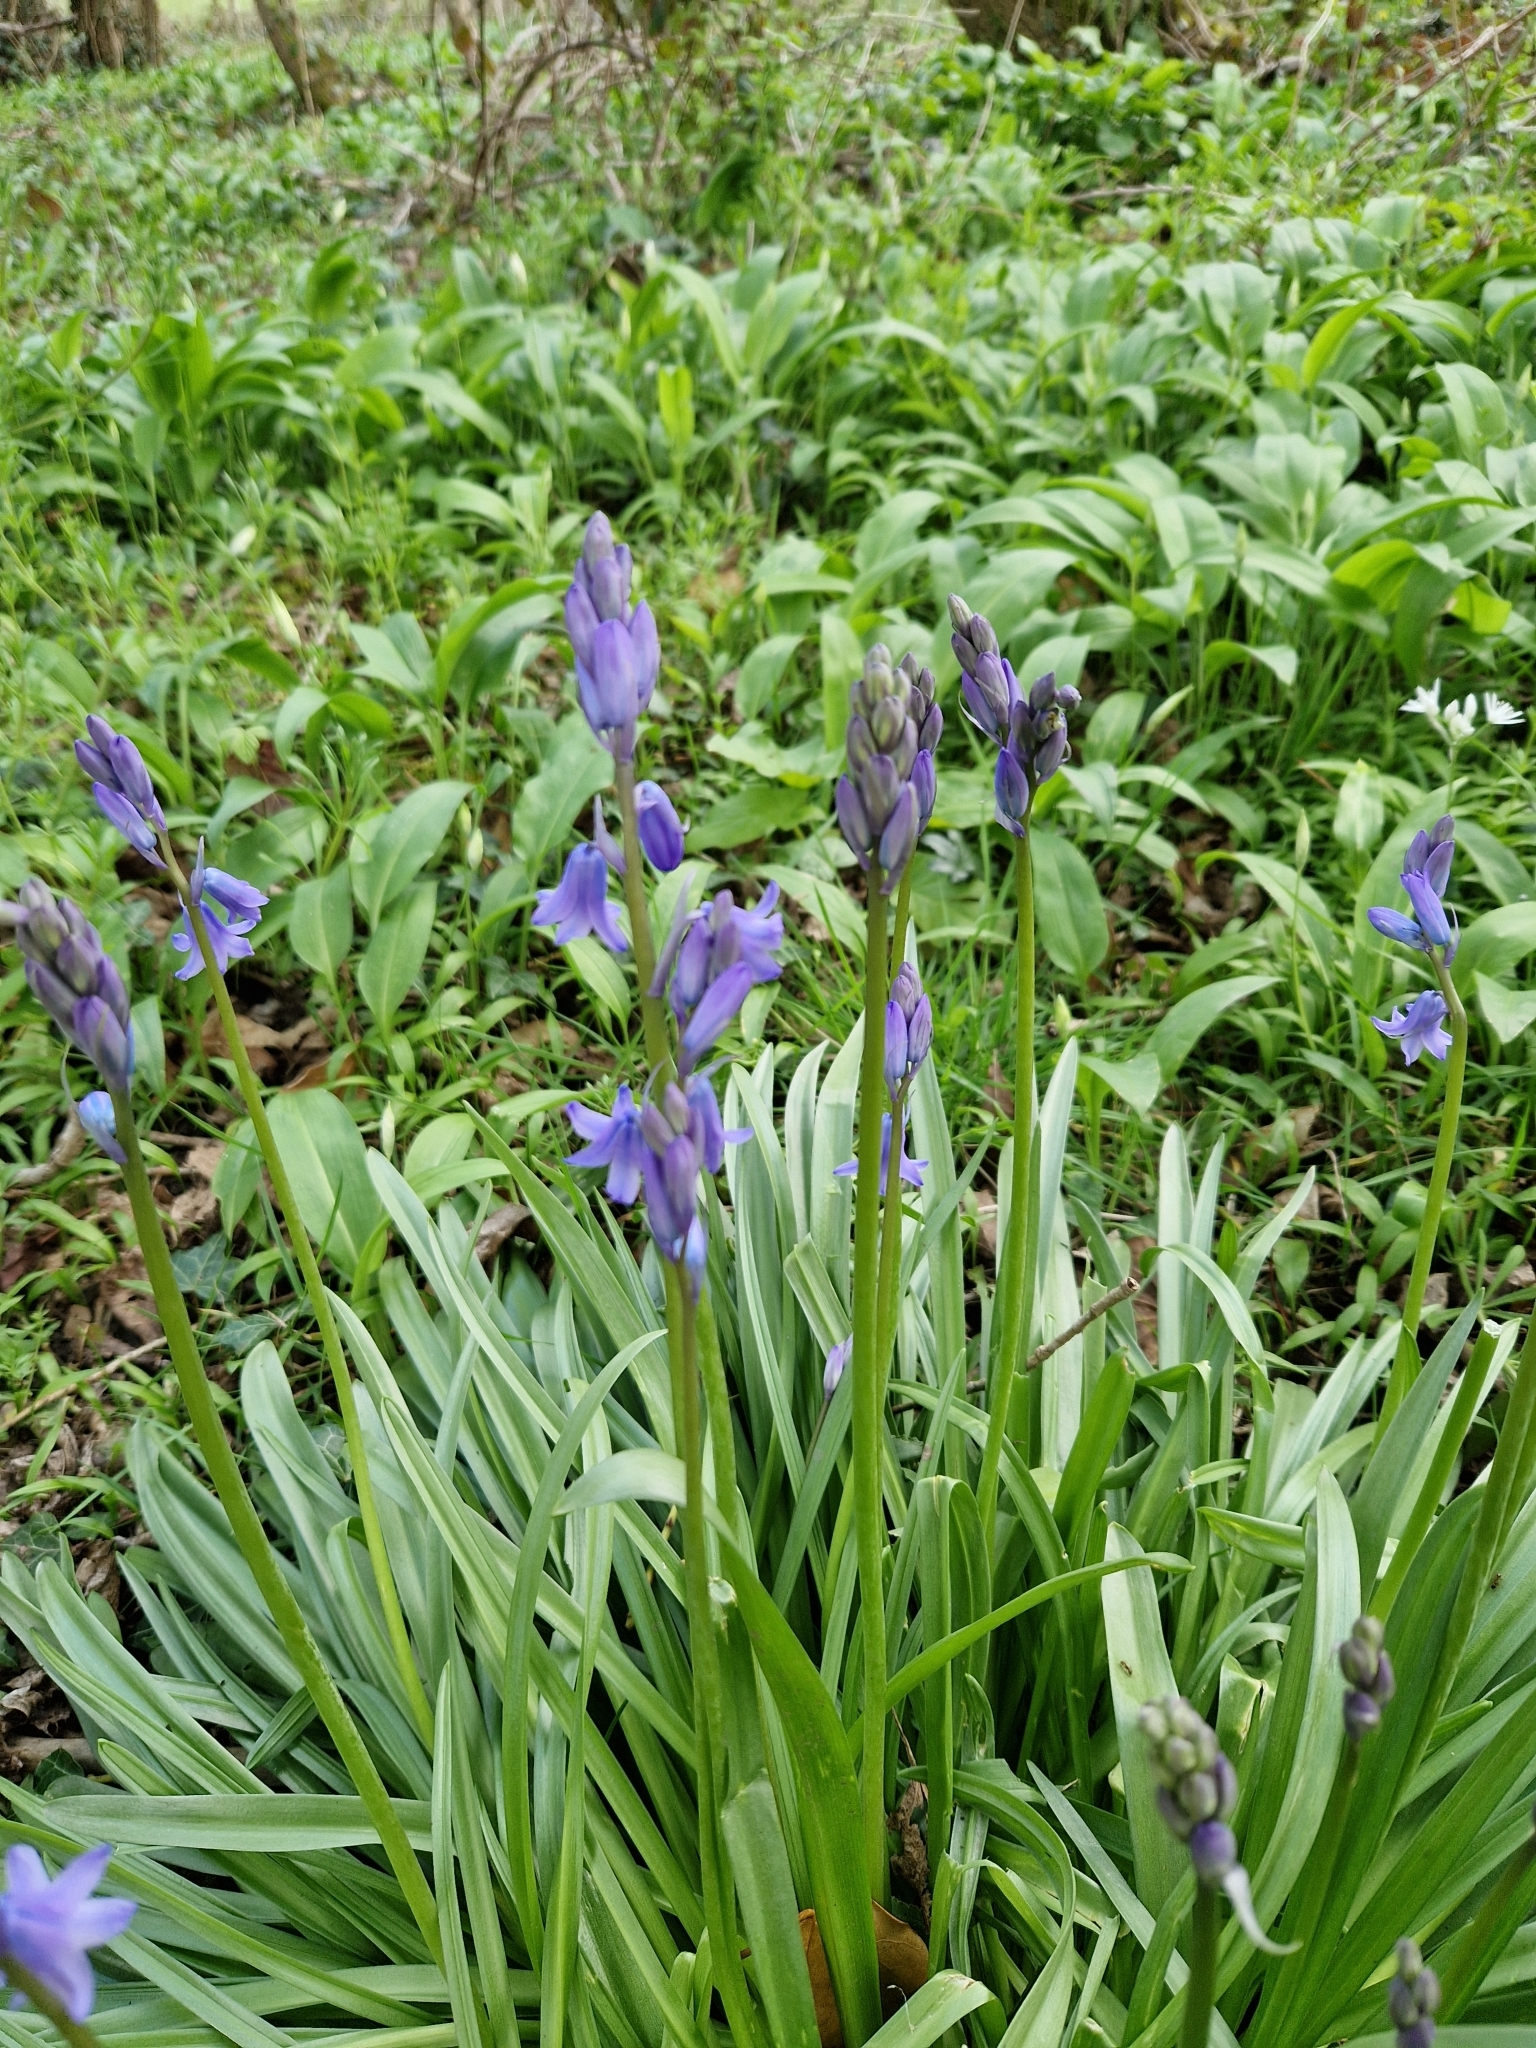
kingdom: Plantae
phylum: Tracheophyta
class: Liliopsida
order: Asparagales
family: Asparagaceae
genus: Hyacinthoides
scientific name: Hyacinthoides hispanica
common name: Spanish bluebell
